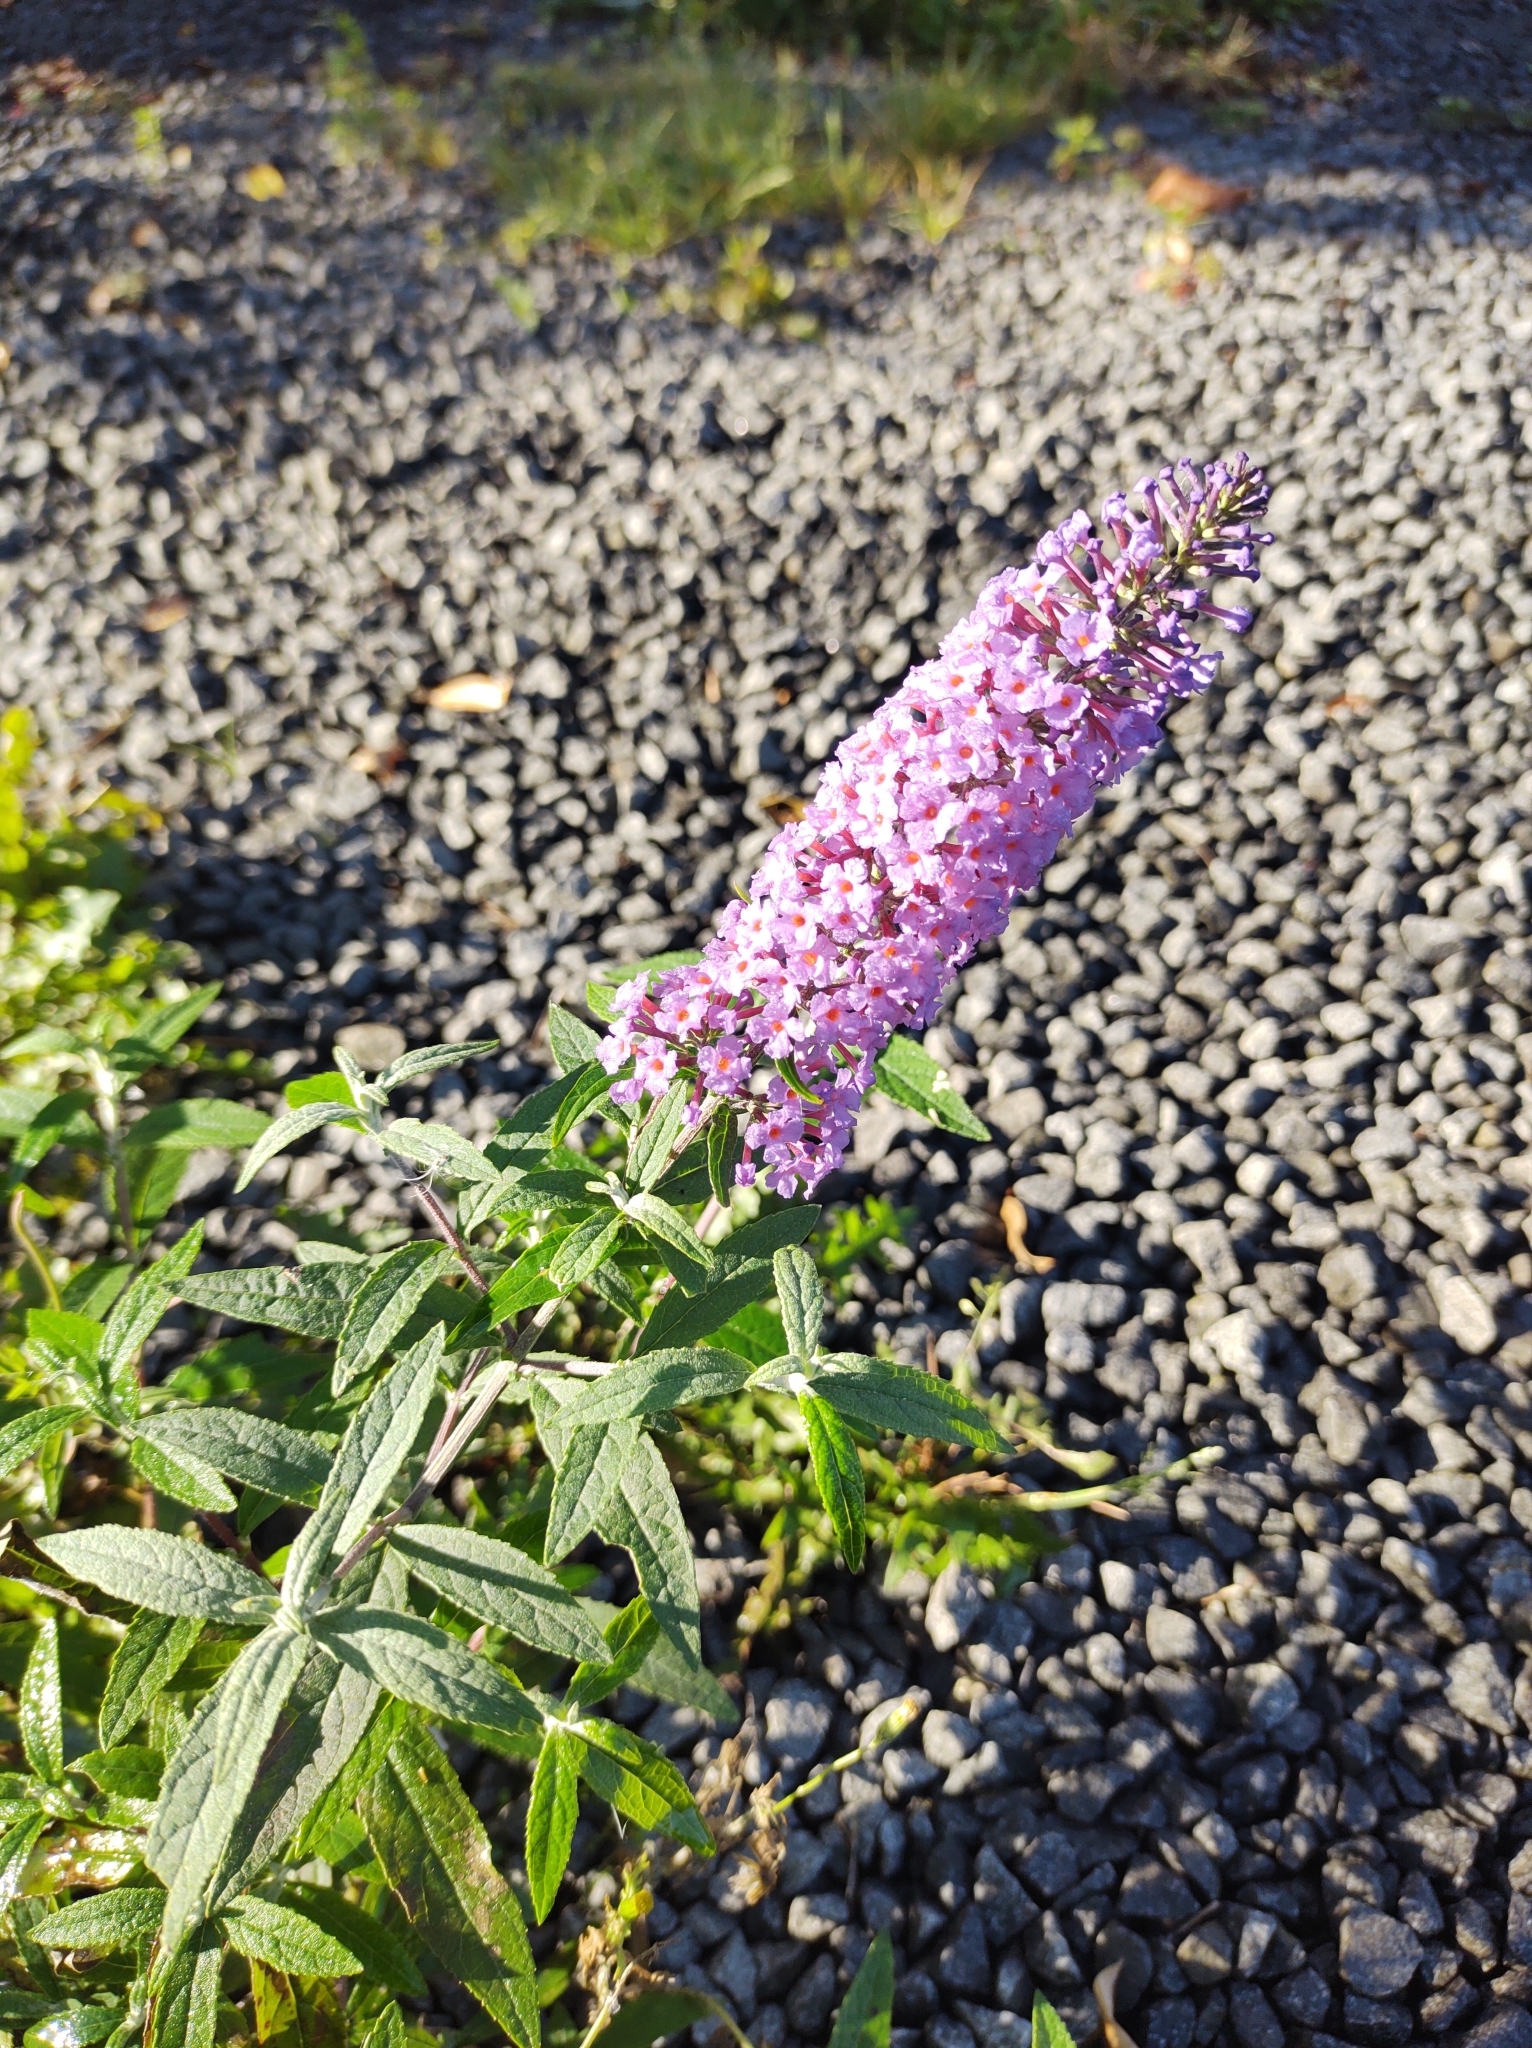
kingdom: Plantae
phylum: Tracheophyta
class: Magnoliopsida
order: Lamiales
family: Scrophulariaceae
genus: Buddleja
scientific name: Buddleja davidii
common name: Butterfly-bush
